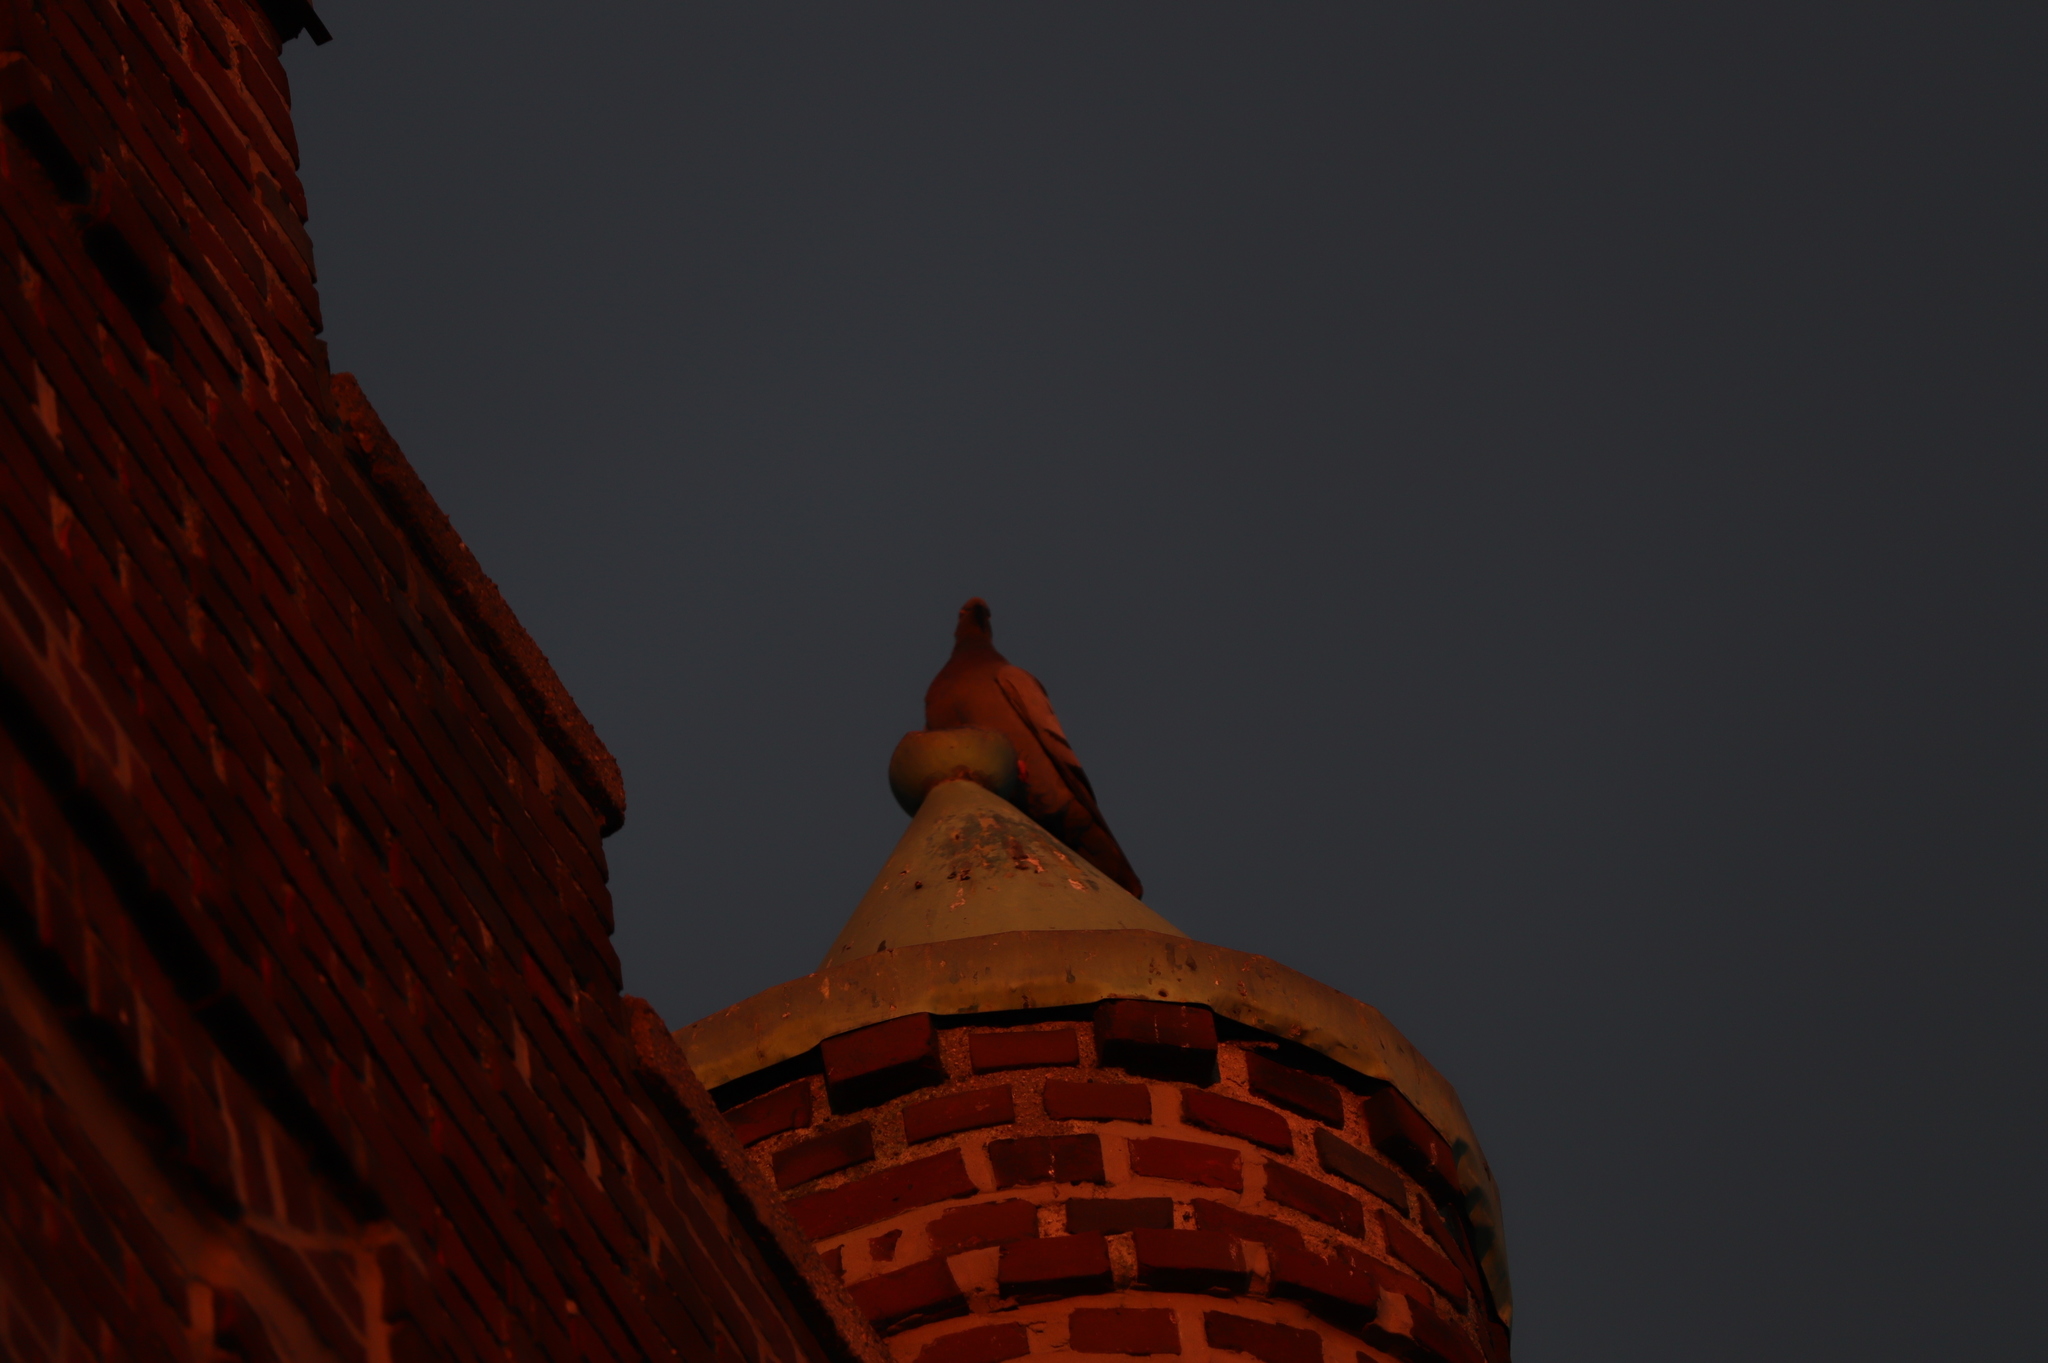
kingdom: Animalia
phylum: Chordata
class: Aves
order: Columbiformes
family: Columbidae
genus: Columba
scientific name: Columba livia
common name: Rock pigeon
